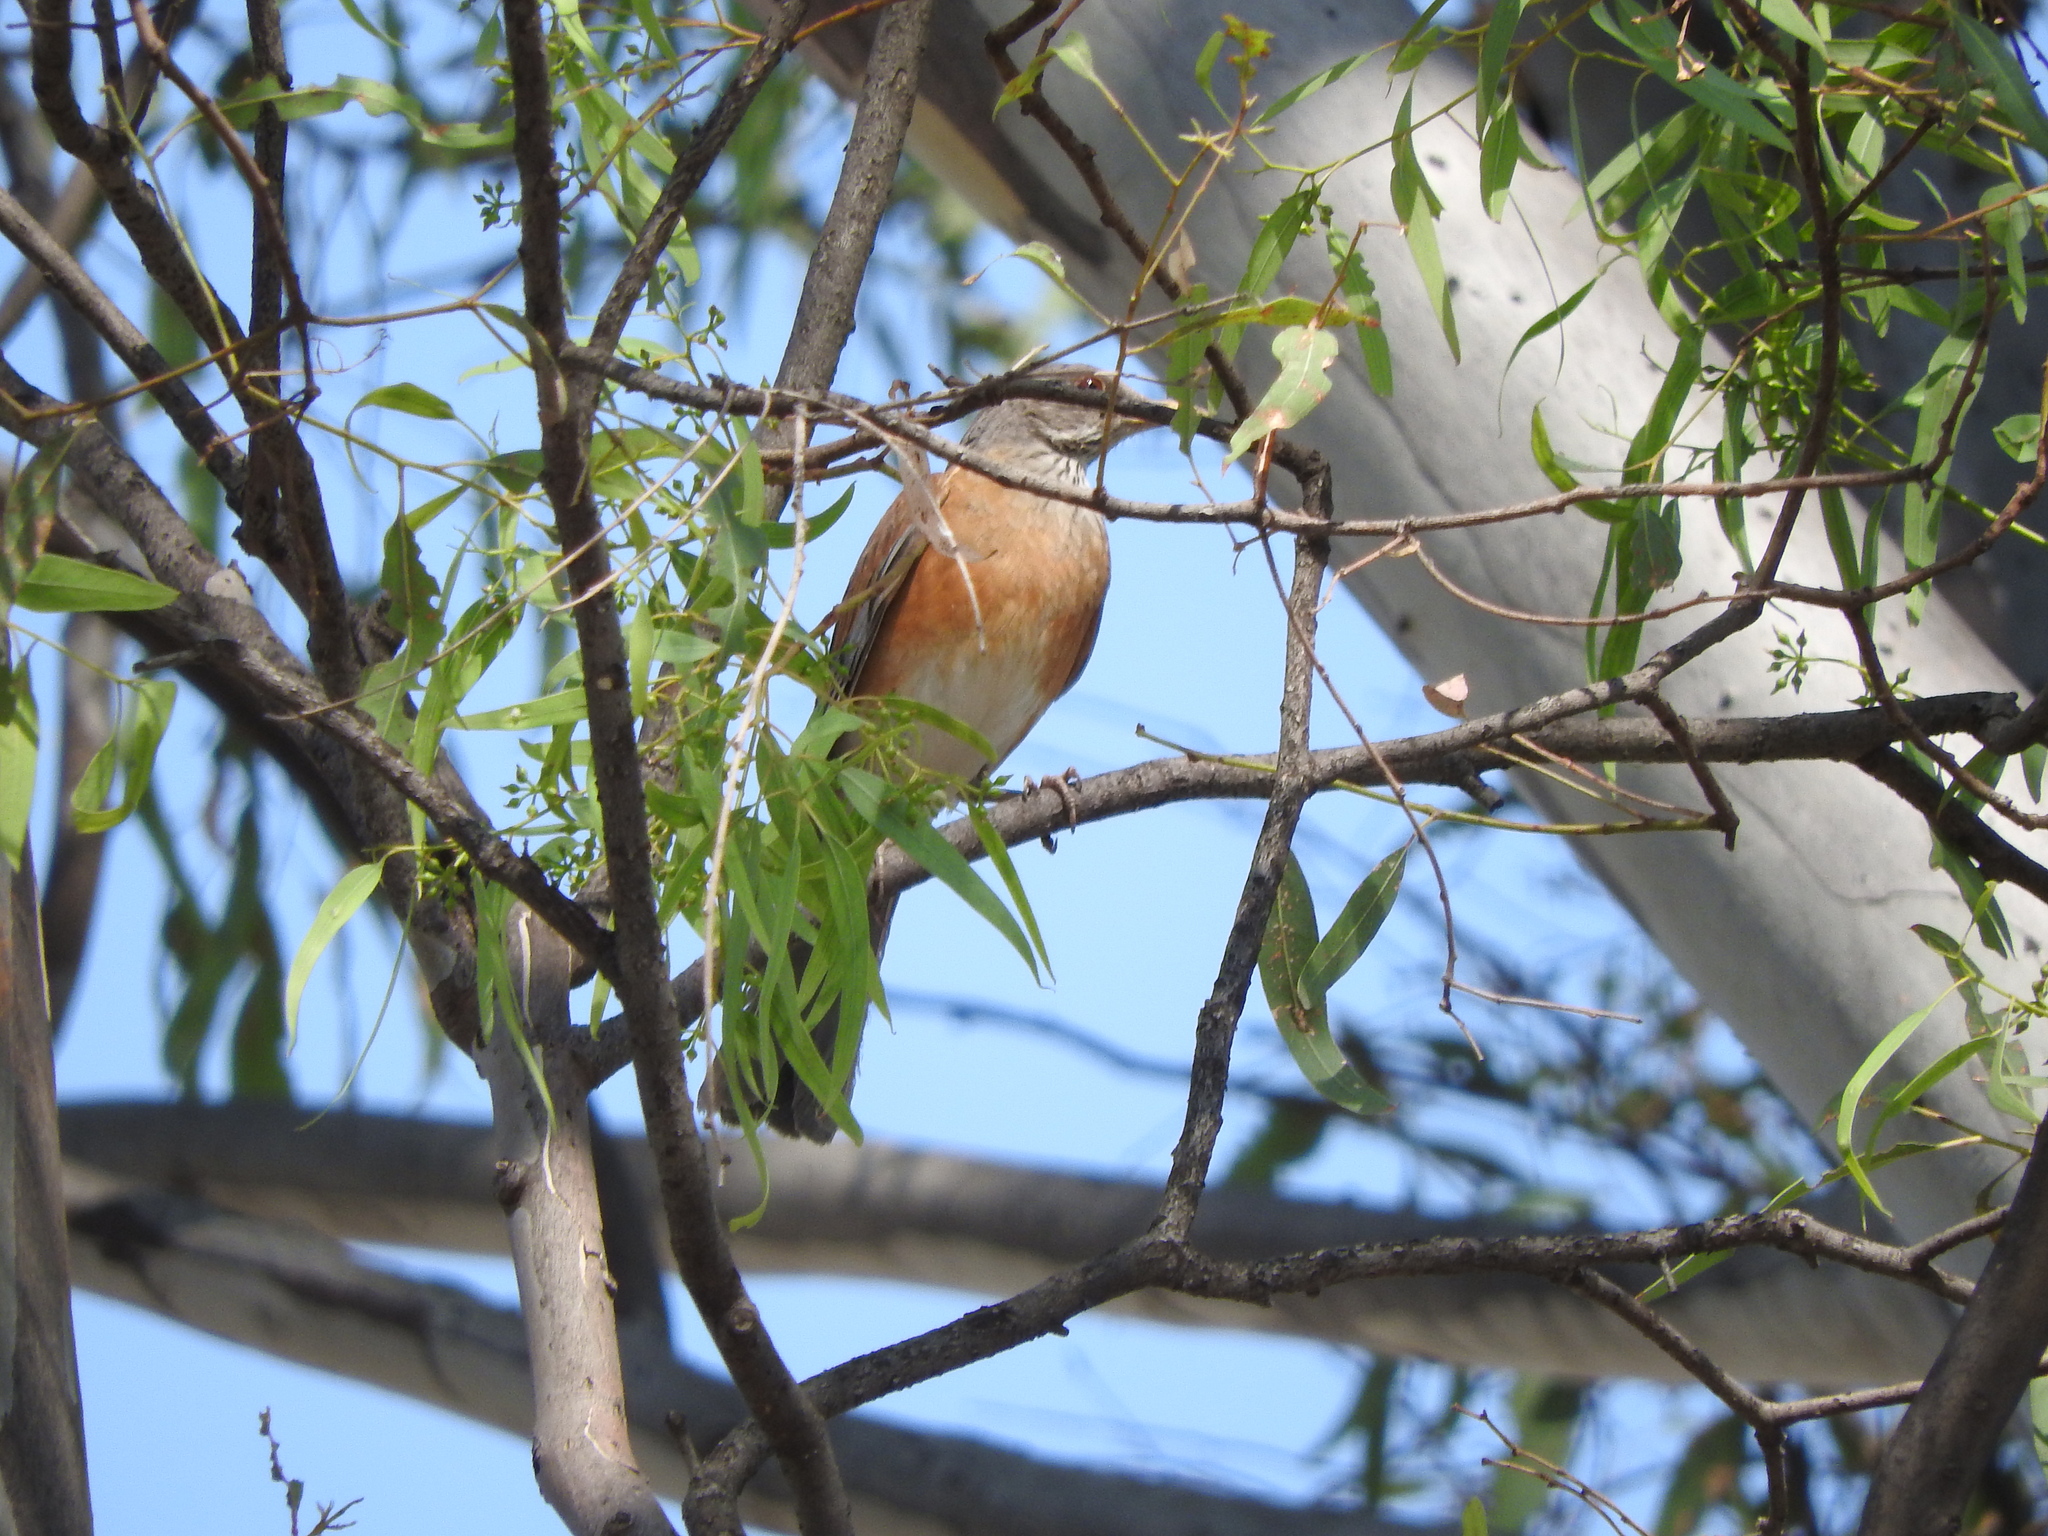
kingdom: Animalia
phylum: Chordata
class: Aves
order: Passeriformes
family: Turdidae
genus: Turdus
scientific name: Turdus rufopalliatus
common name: Rufous-backed robin
